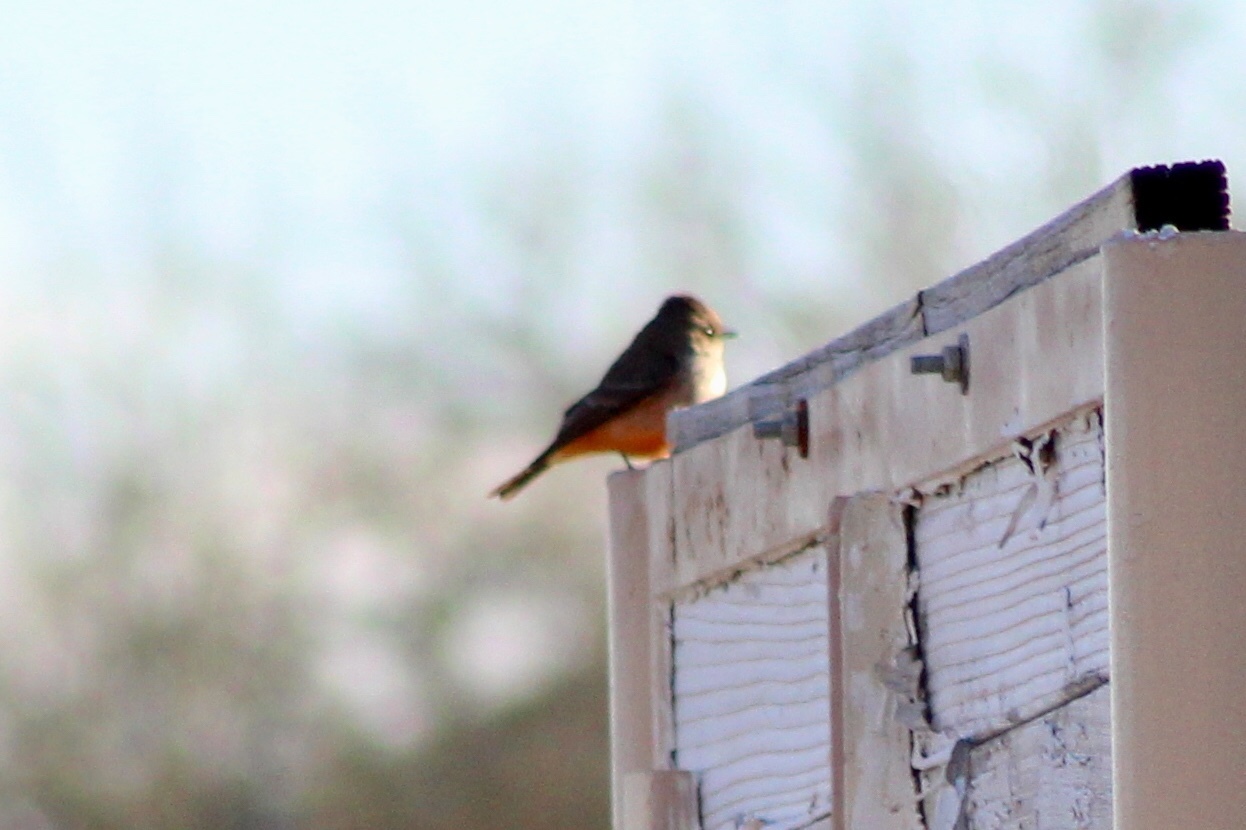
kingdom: Animalia
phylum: Chordata
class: Aves
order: Passeriformes
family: Tyrannidae
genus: Pyrocephalus
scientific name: Pyrocephalus rubinus
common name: Vermilion flycatcher
